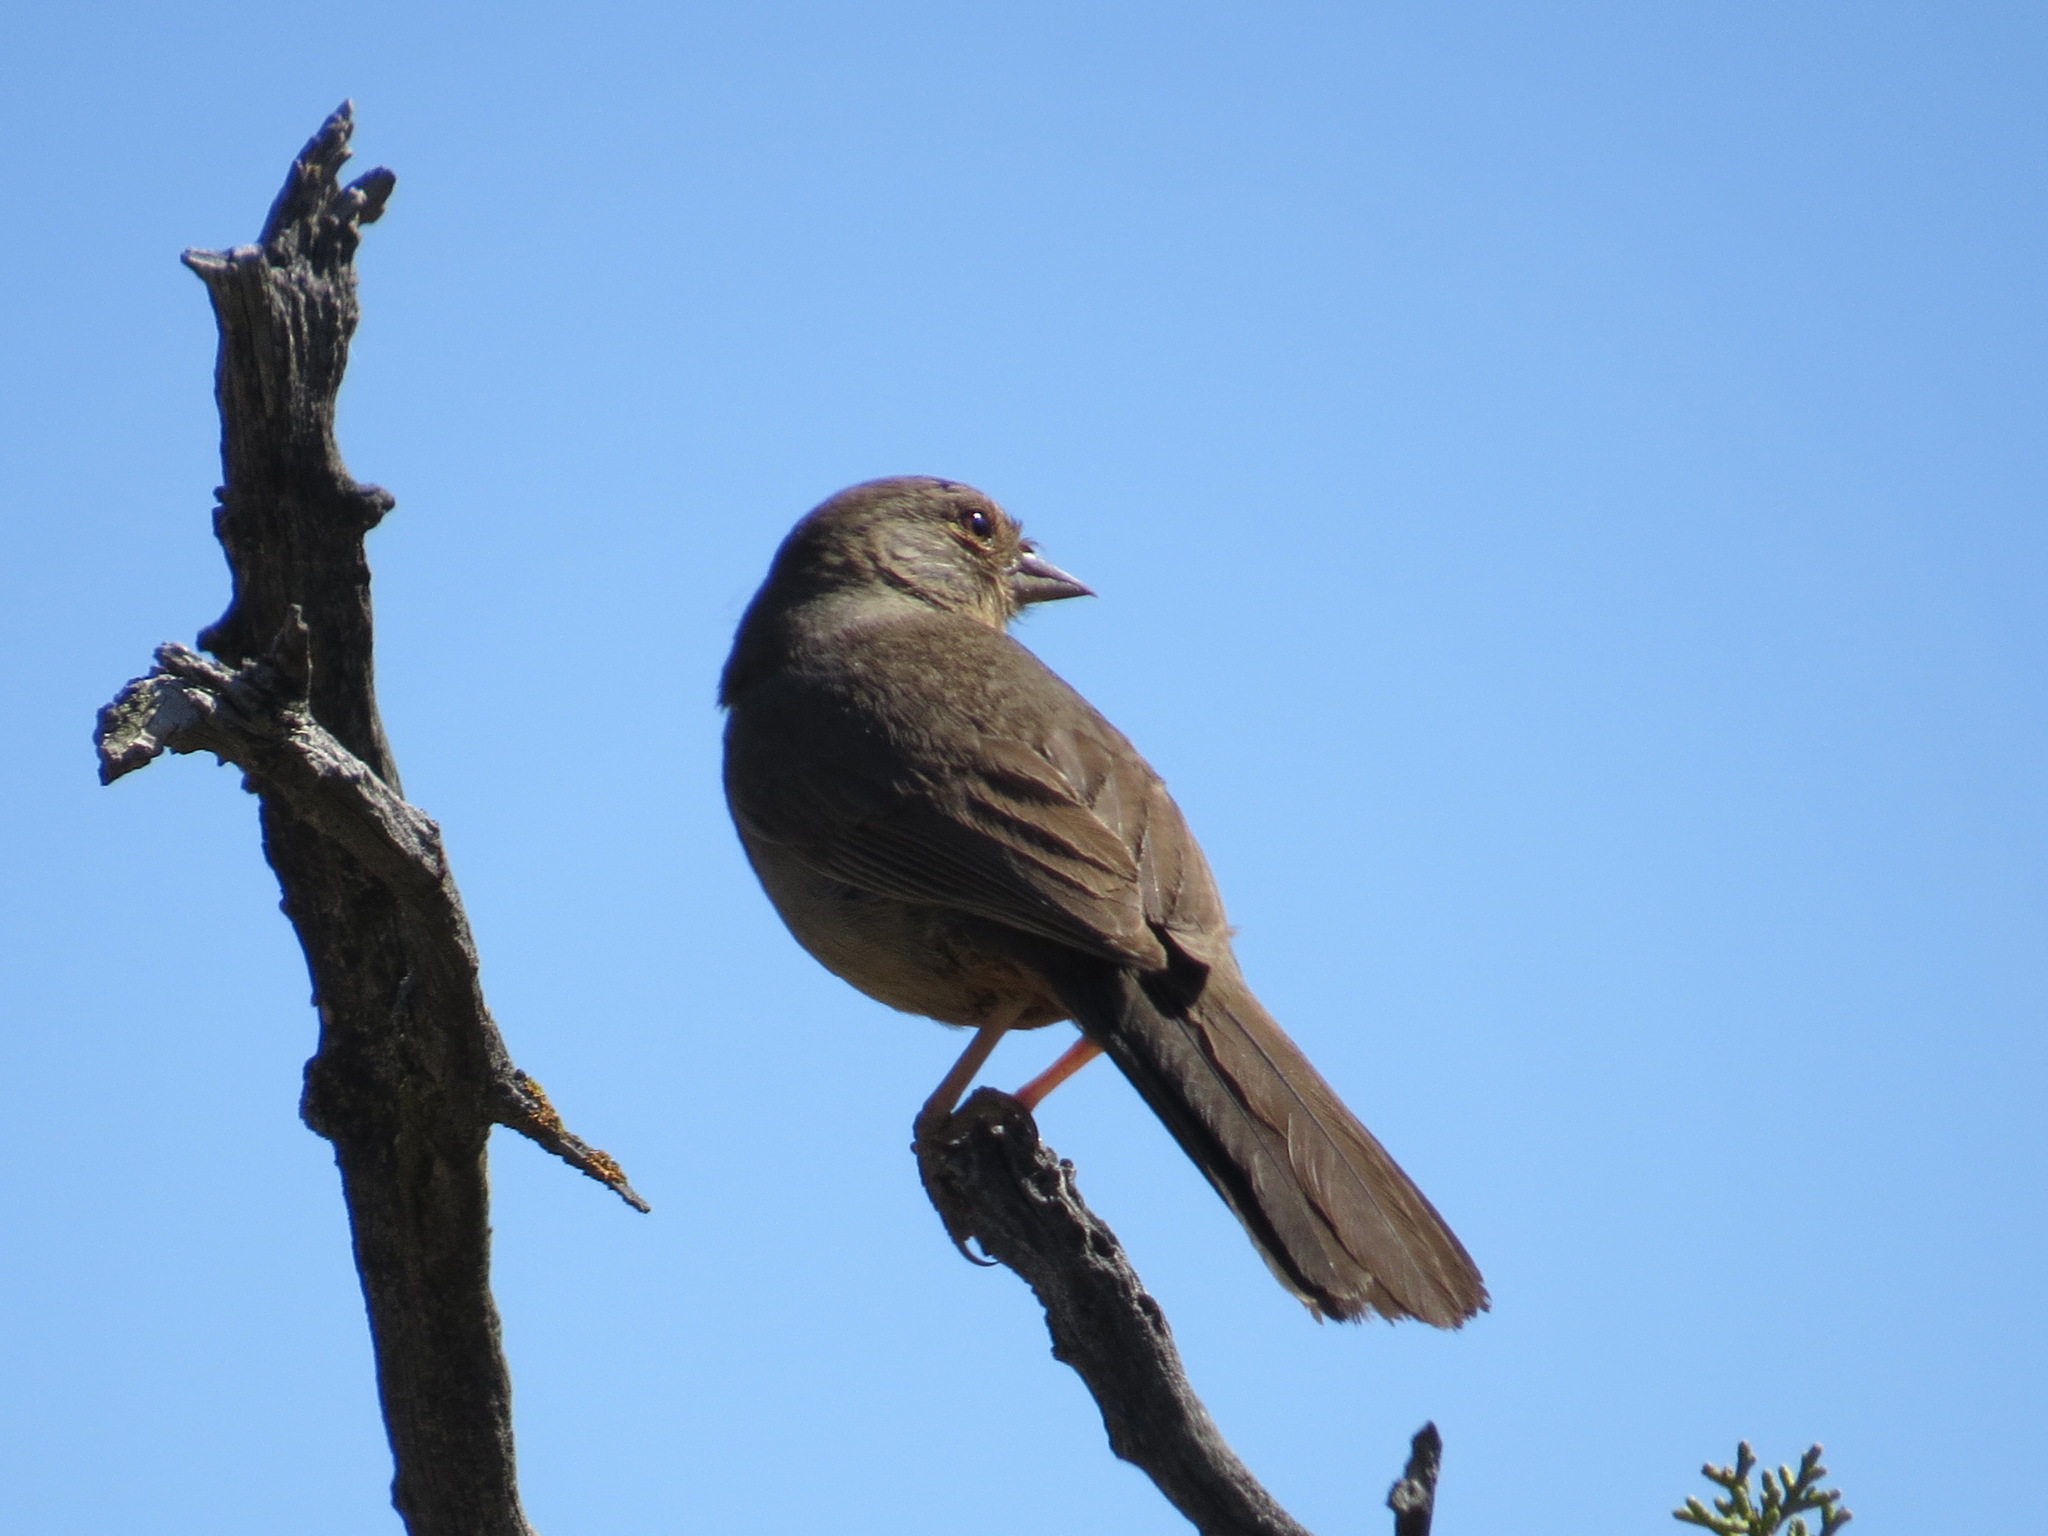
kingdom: Animalia
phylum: Chordata
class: Aves
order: Passeriformes
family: Passerellidae
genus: Melozone
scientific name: Melozone crissalis
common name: California towhee
